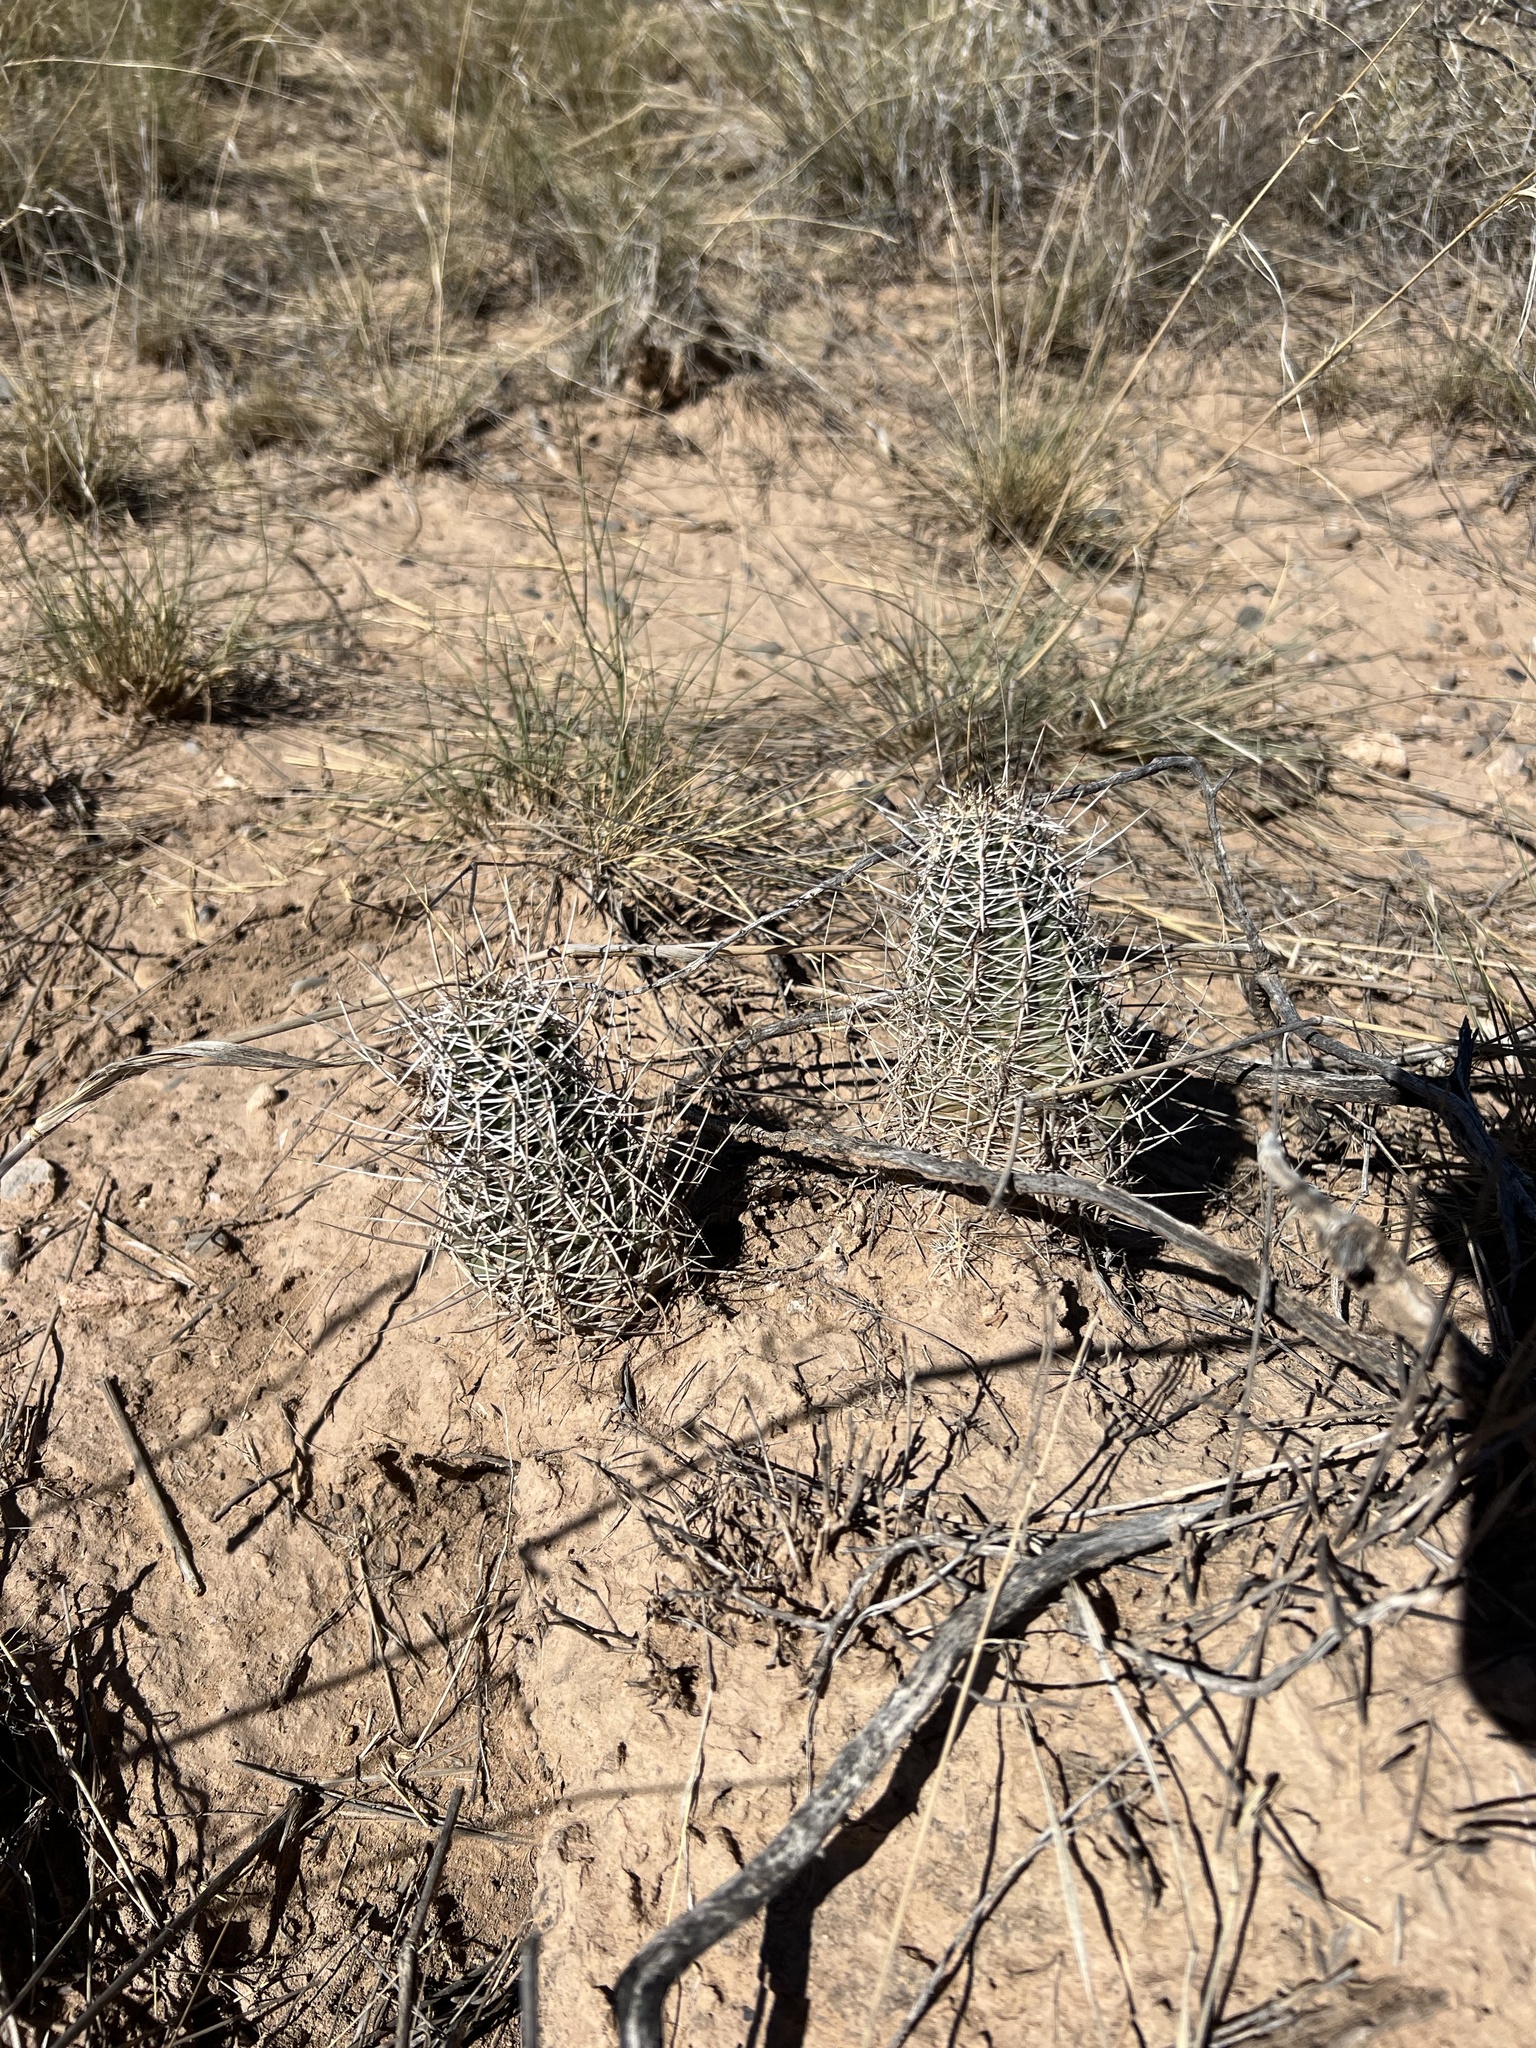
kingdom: Plantae
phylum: Tracheophyta
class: Magnoliopsida
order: Caryophyllales
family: Cactaceae
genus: Echinocereus
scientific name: Echinocereus fendleri
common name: Fendler's hedgehog cactus
